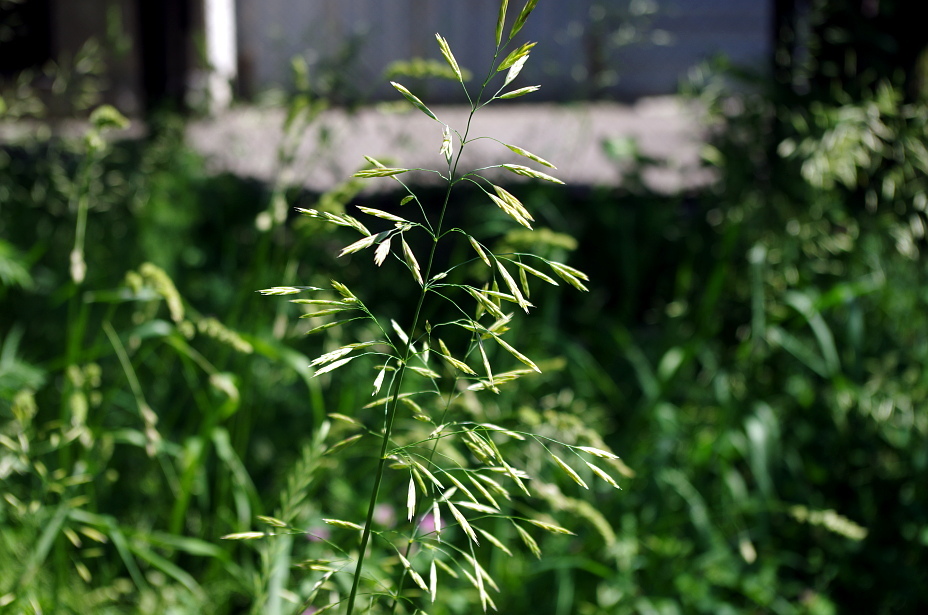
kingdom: Plantae
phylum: Tracheophyta
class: Liliopsida
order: Poales
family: Poaceae
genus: Bromus
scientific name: Bromus inermis
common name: Smooth brome
